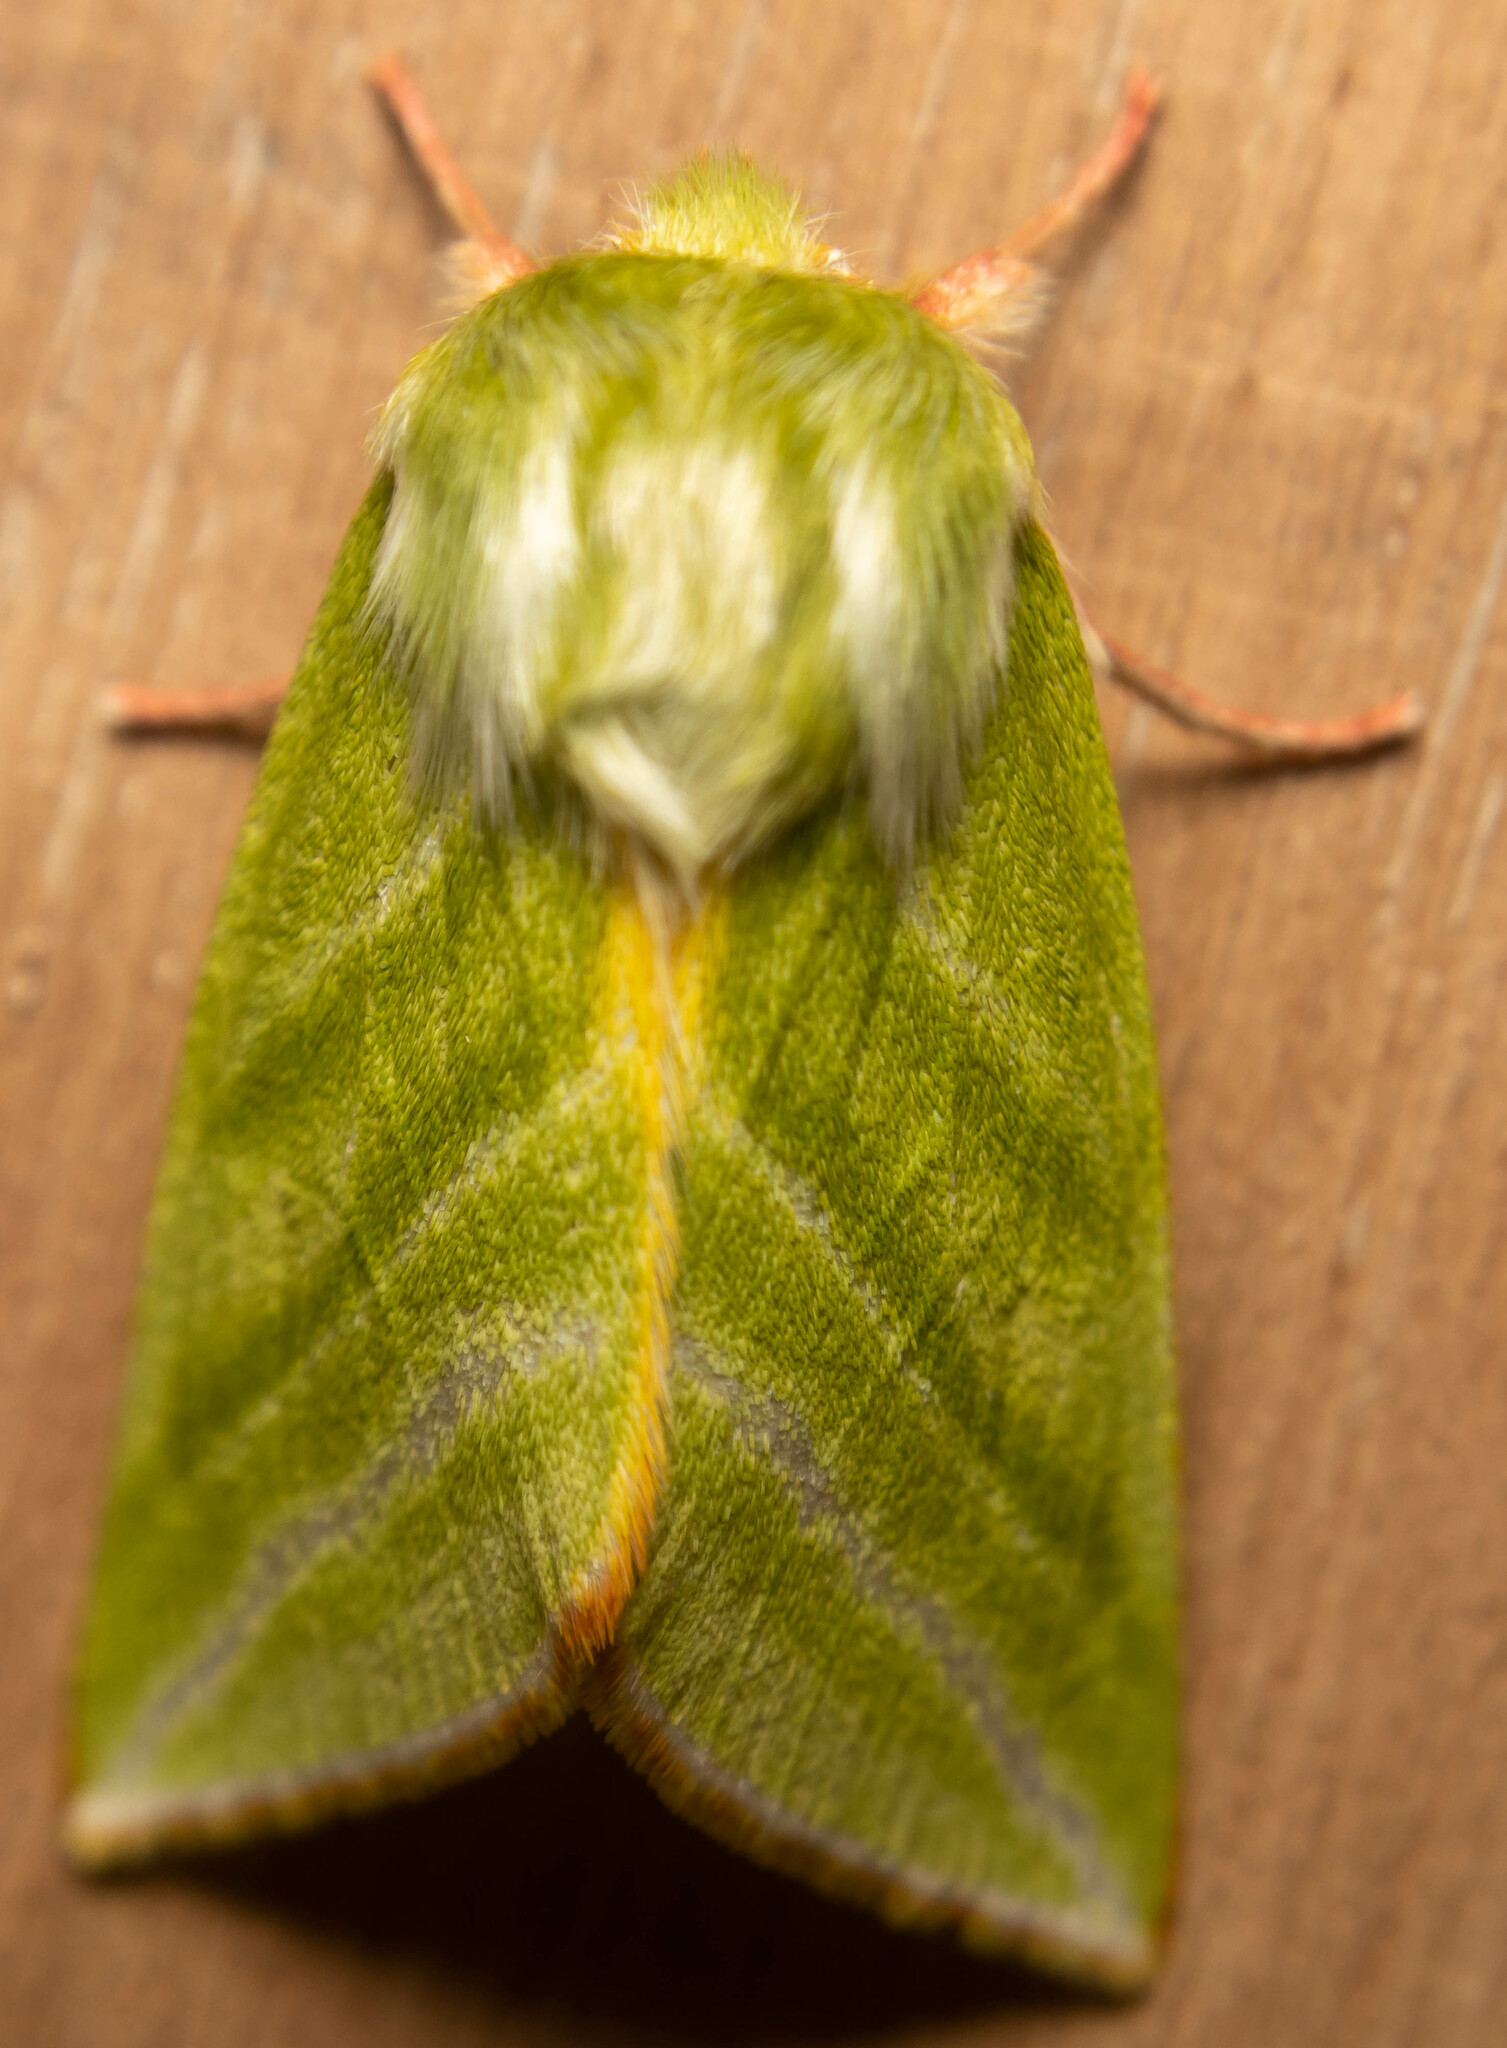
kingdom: Animalia
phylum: Arthropoda
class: Insecta
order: Lepidoptera
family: Nolidae
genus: Pseudoips
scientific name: Pseudoips prasinana
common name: Green silver-lines
